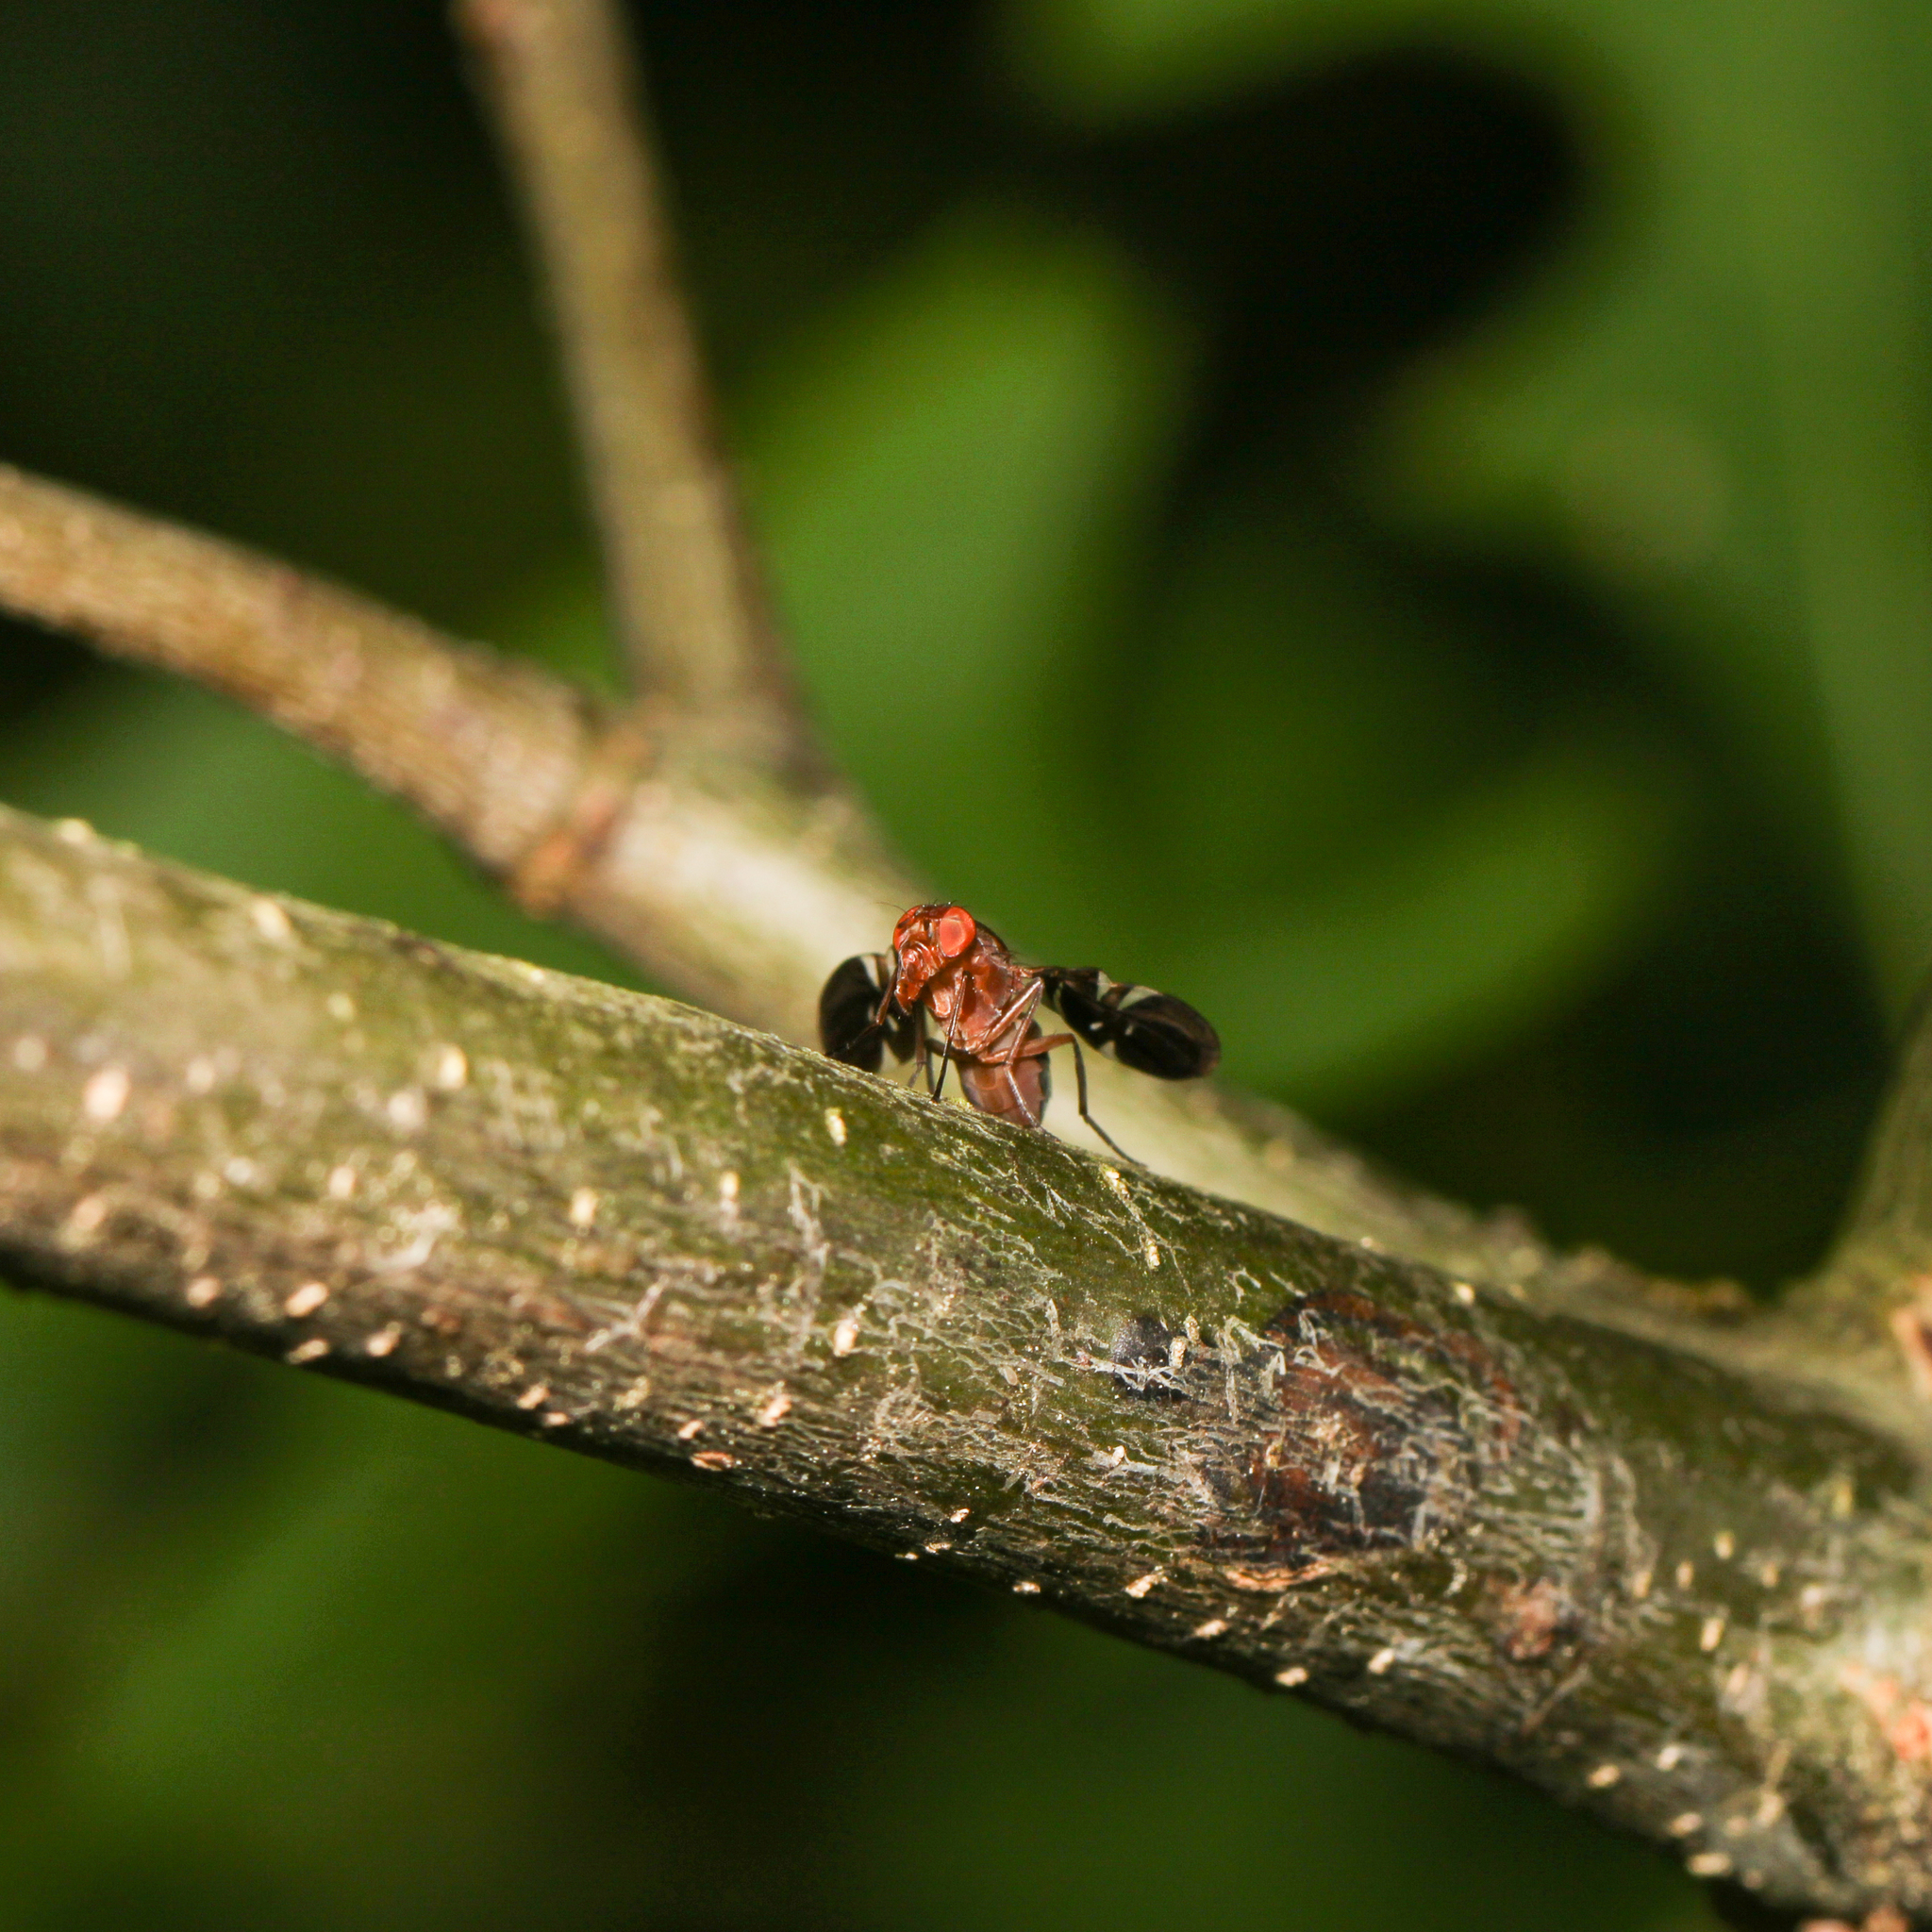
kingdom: Animalia
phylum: Arthropoda
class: Insecta
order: Diptera
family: Ulidiidae
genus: Delphinia
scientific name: Delphinia picta
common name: Common picture-winged fly
